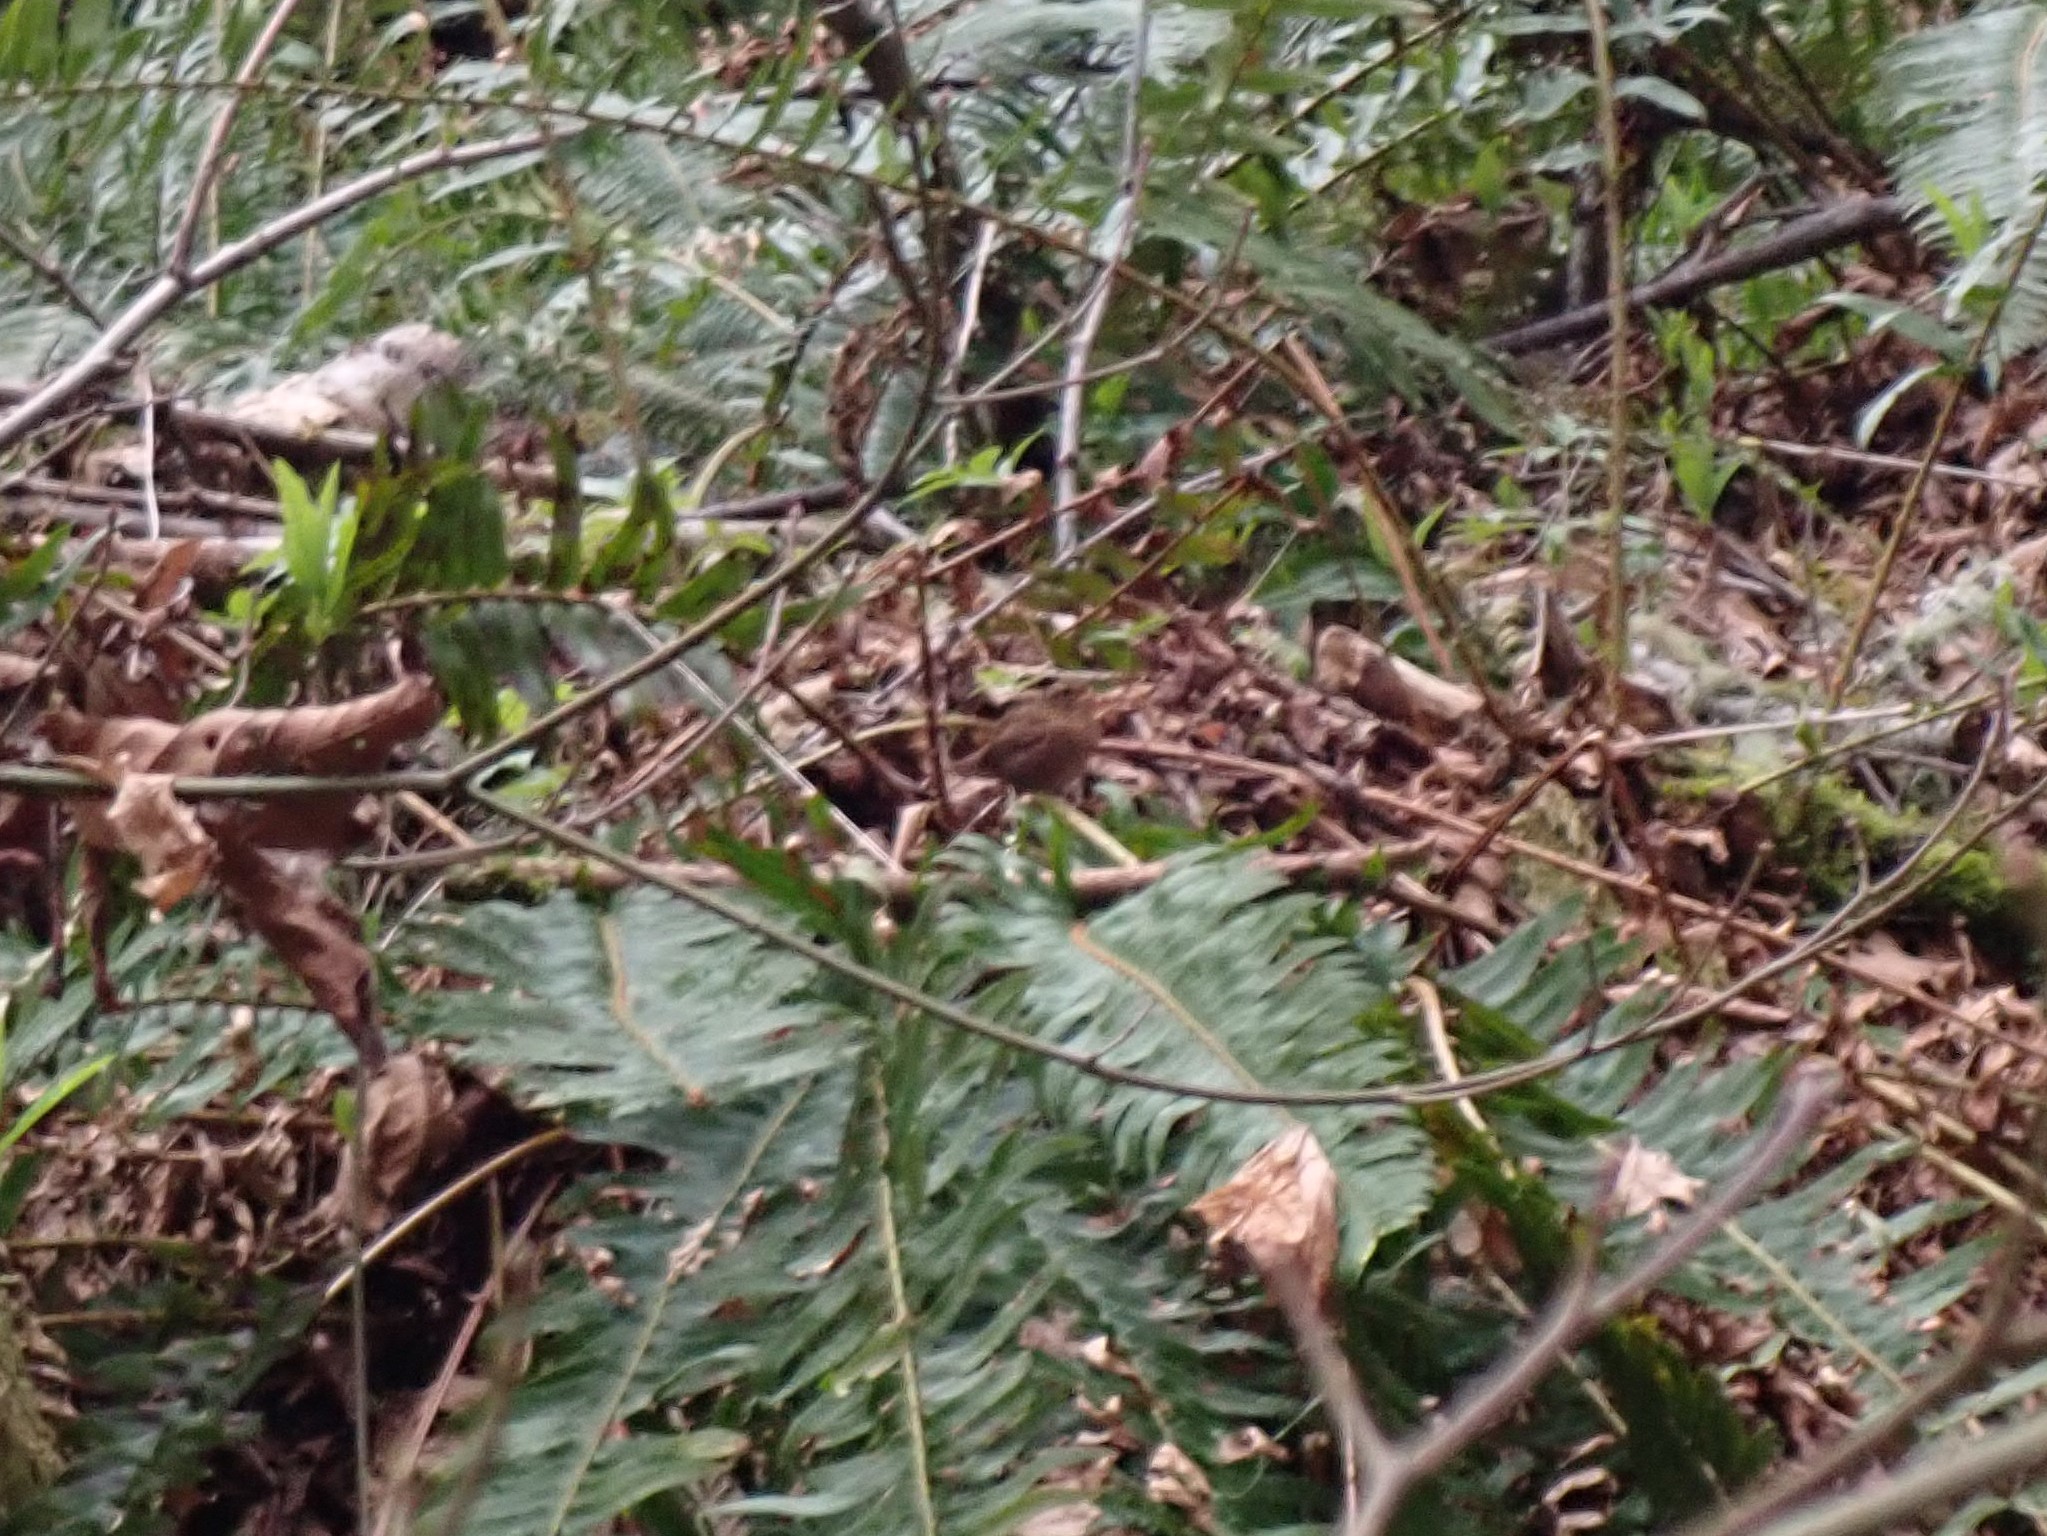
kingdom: Animalia
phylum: Chordata
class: Aves
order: Passeriformes
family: Troglodytidae
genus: Troglodytes
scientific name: Troglodytes pacificus
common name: Pacific wren
